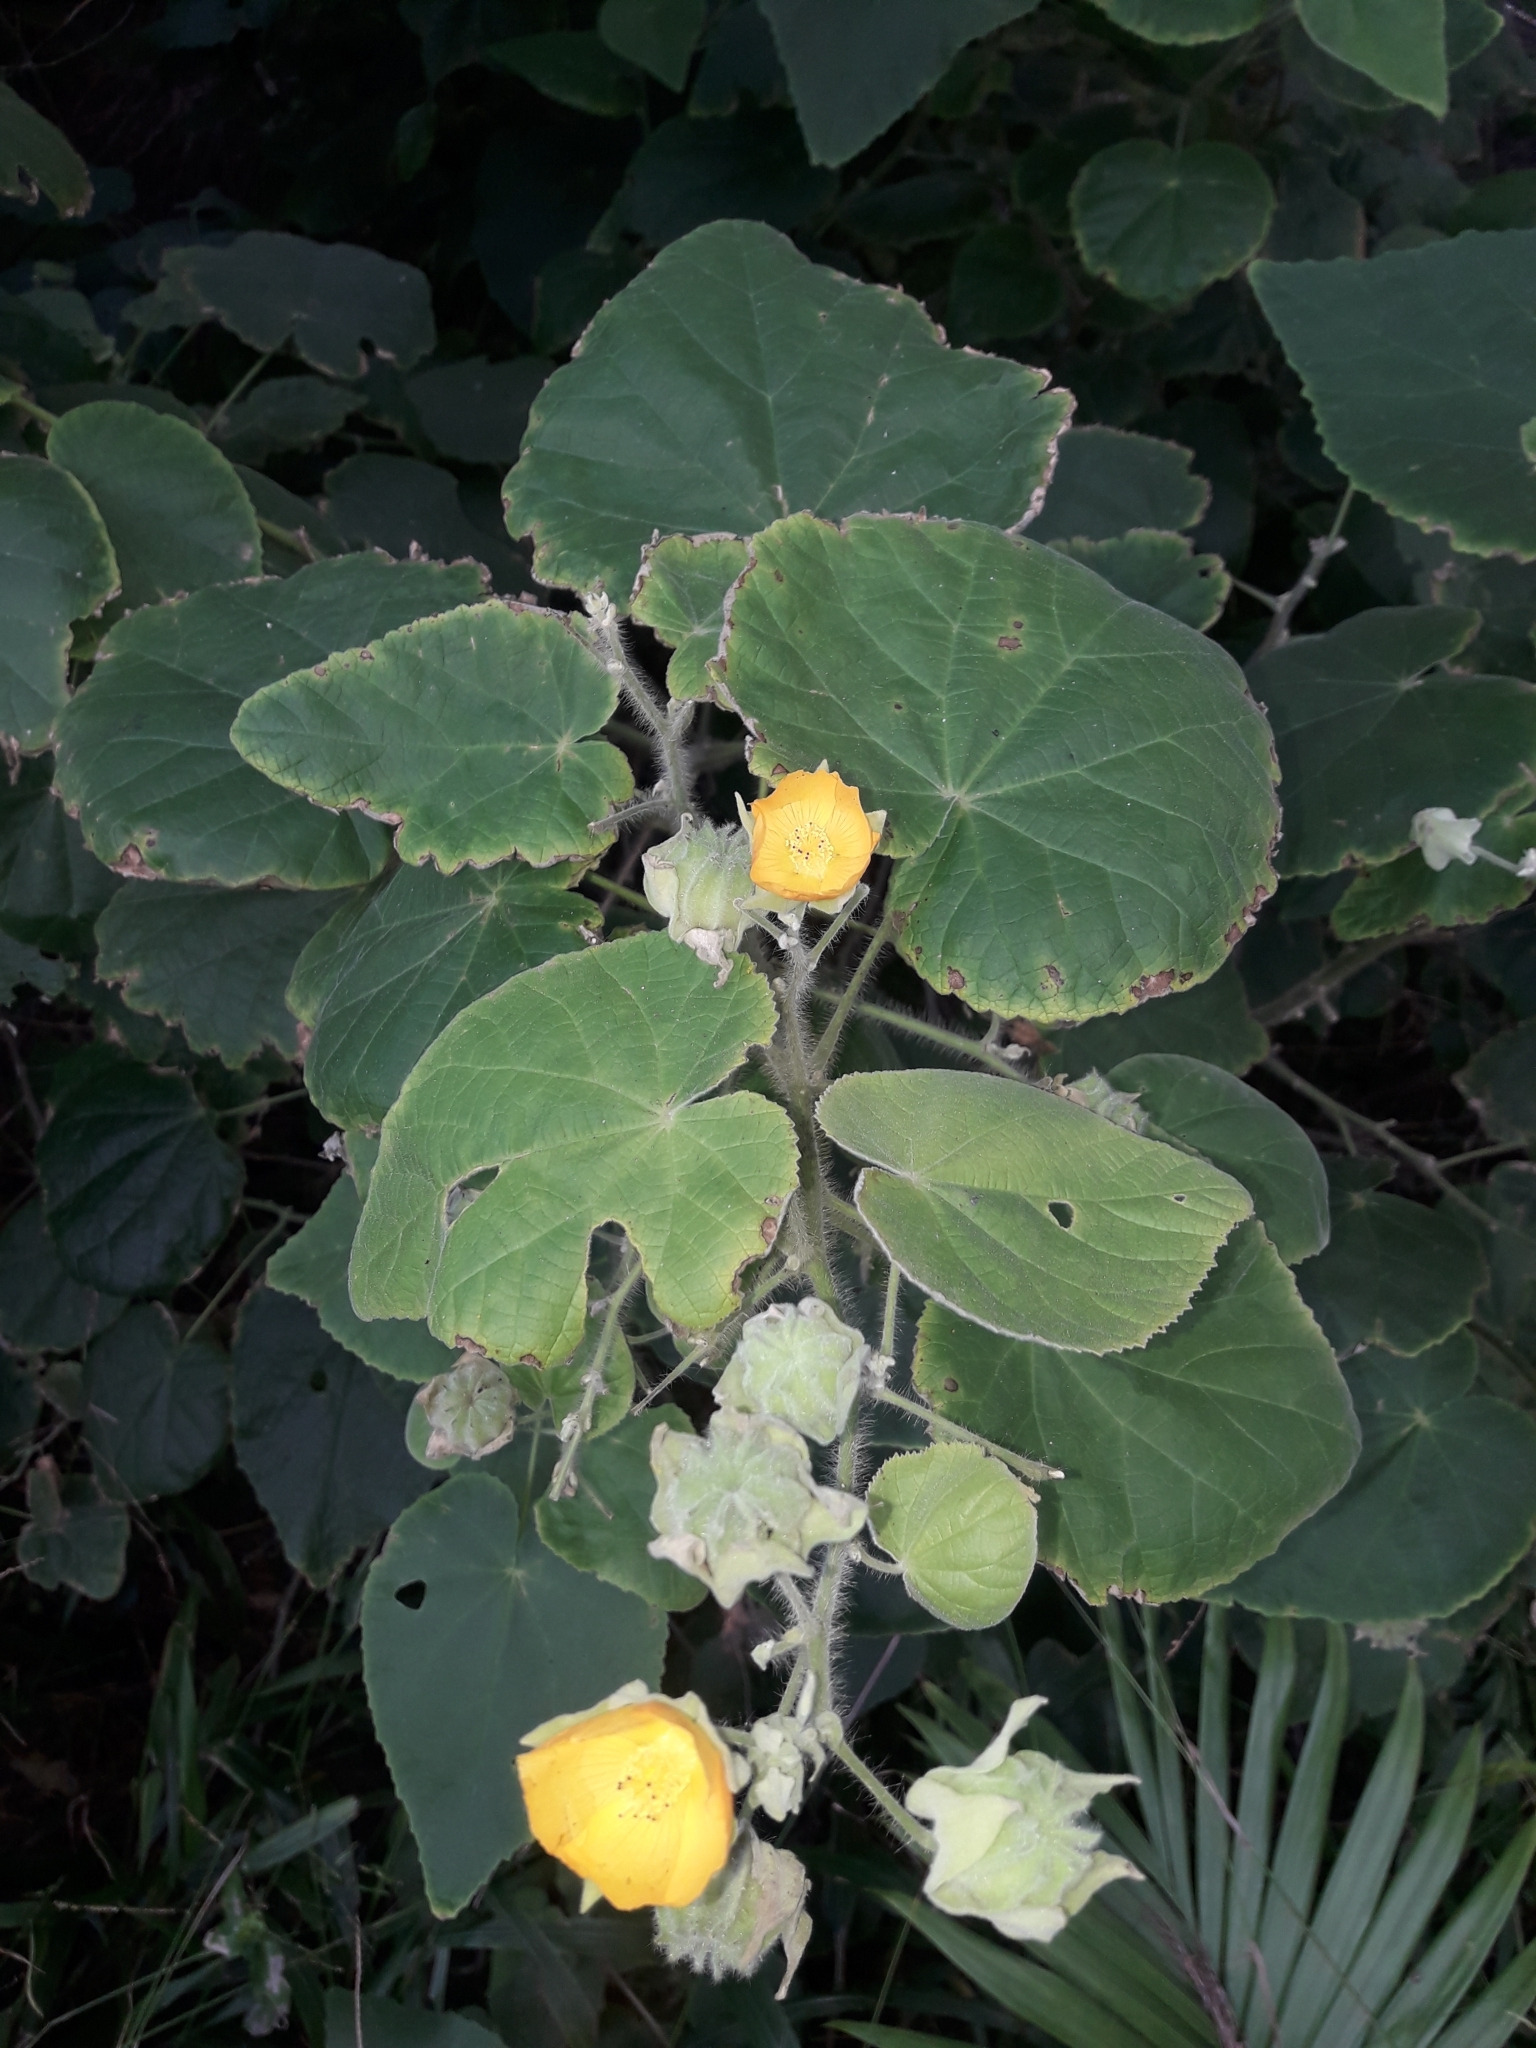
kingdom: Plantae
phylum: Tracheophyta
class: Magnoliopsida
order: Malvales
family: Malvaceae
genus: Abutilon
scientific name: Abutilon grandifolium
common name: Hairy abutilon
